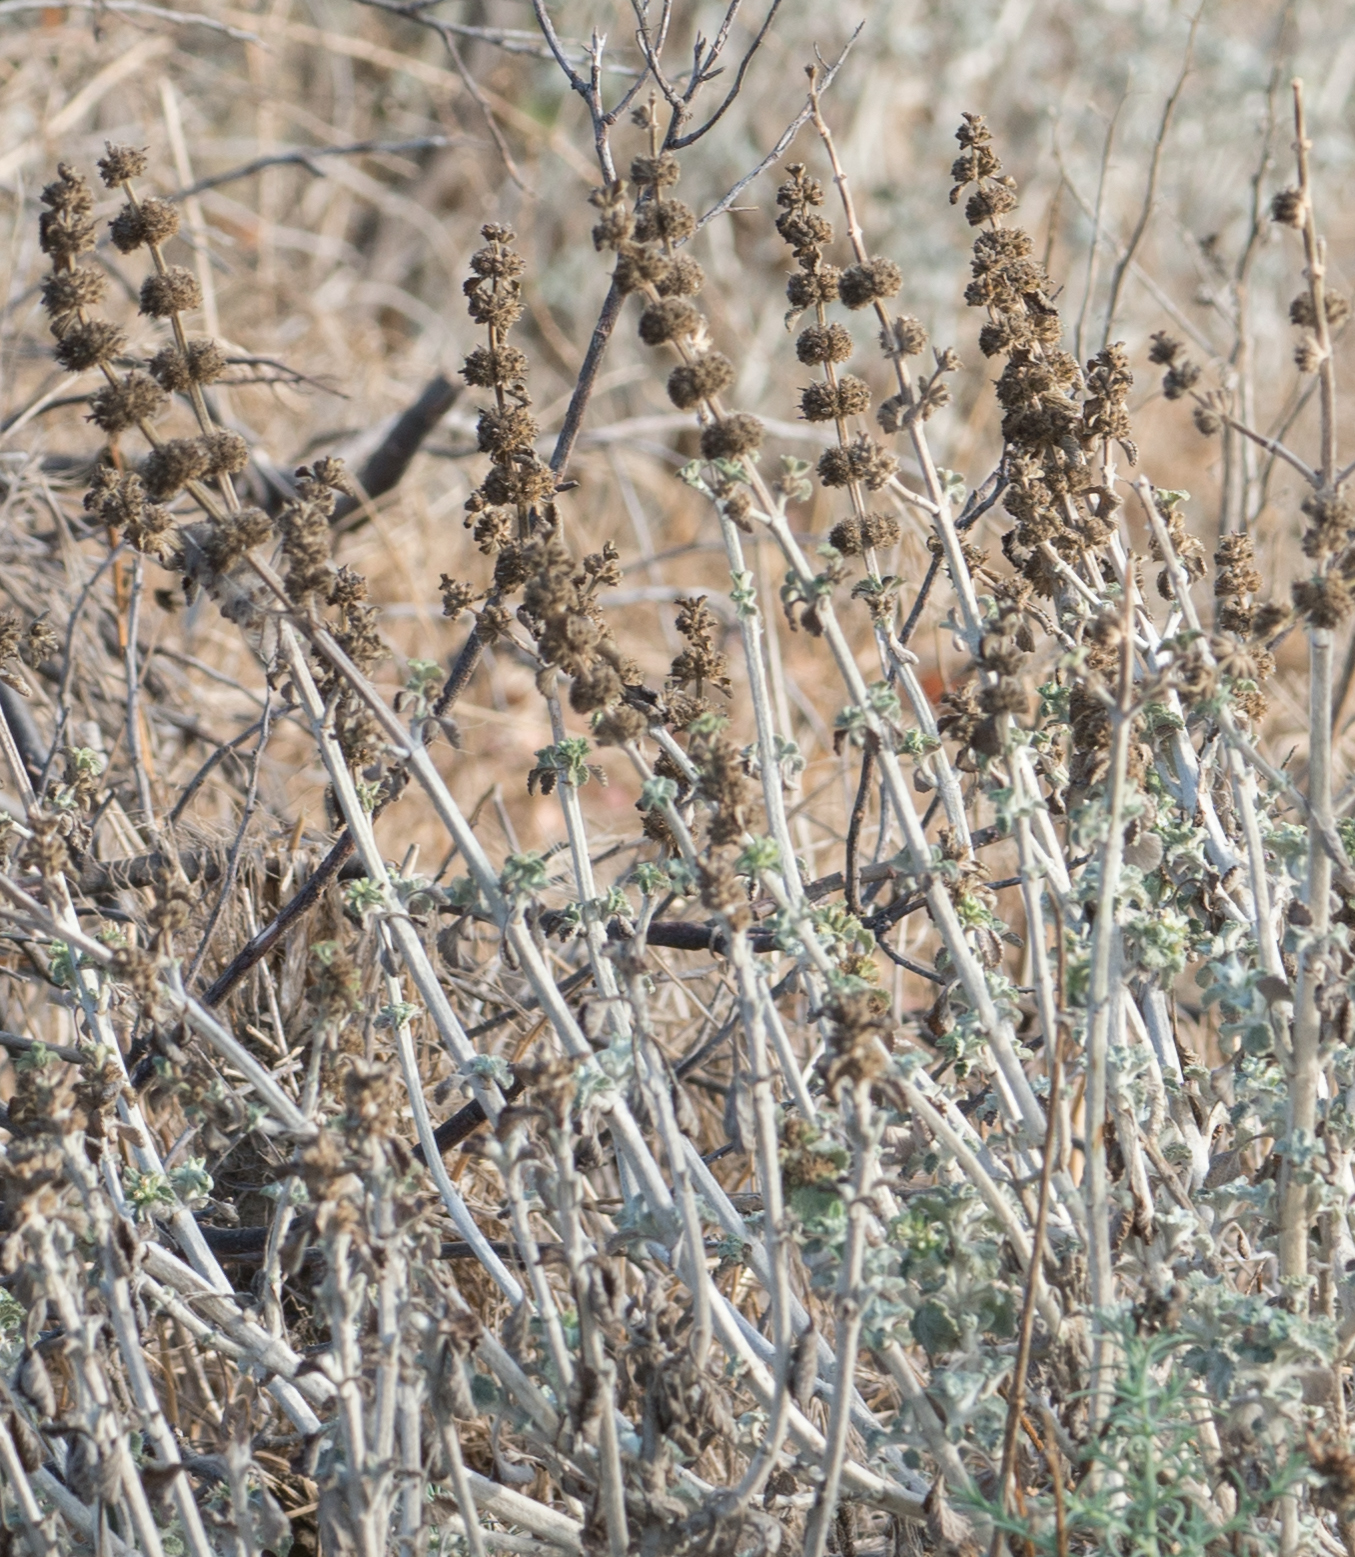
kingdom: Plantae
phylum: Tracheophyta
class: Magnoliopsida
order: Lamiales
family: Lamiaceae
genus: Marrubium
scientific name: Marrubium vulgare
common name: Horehound
